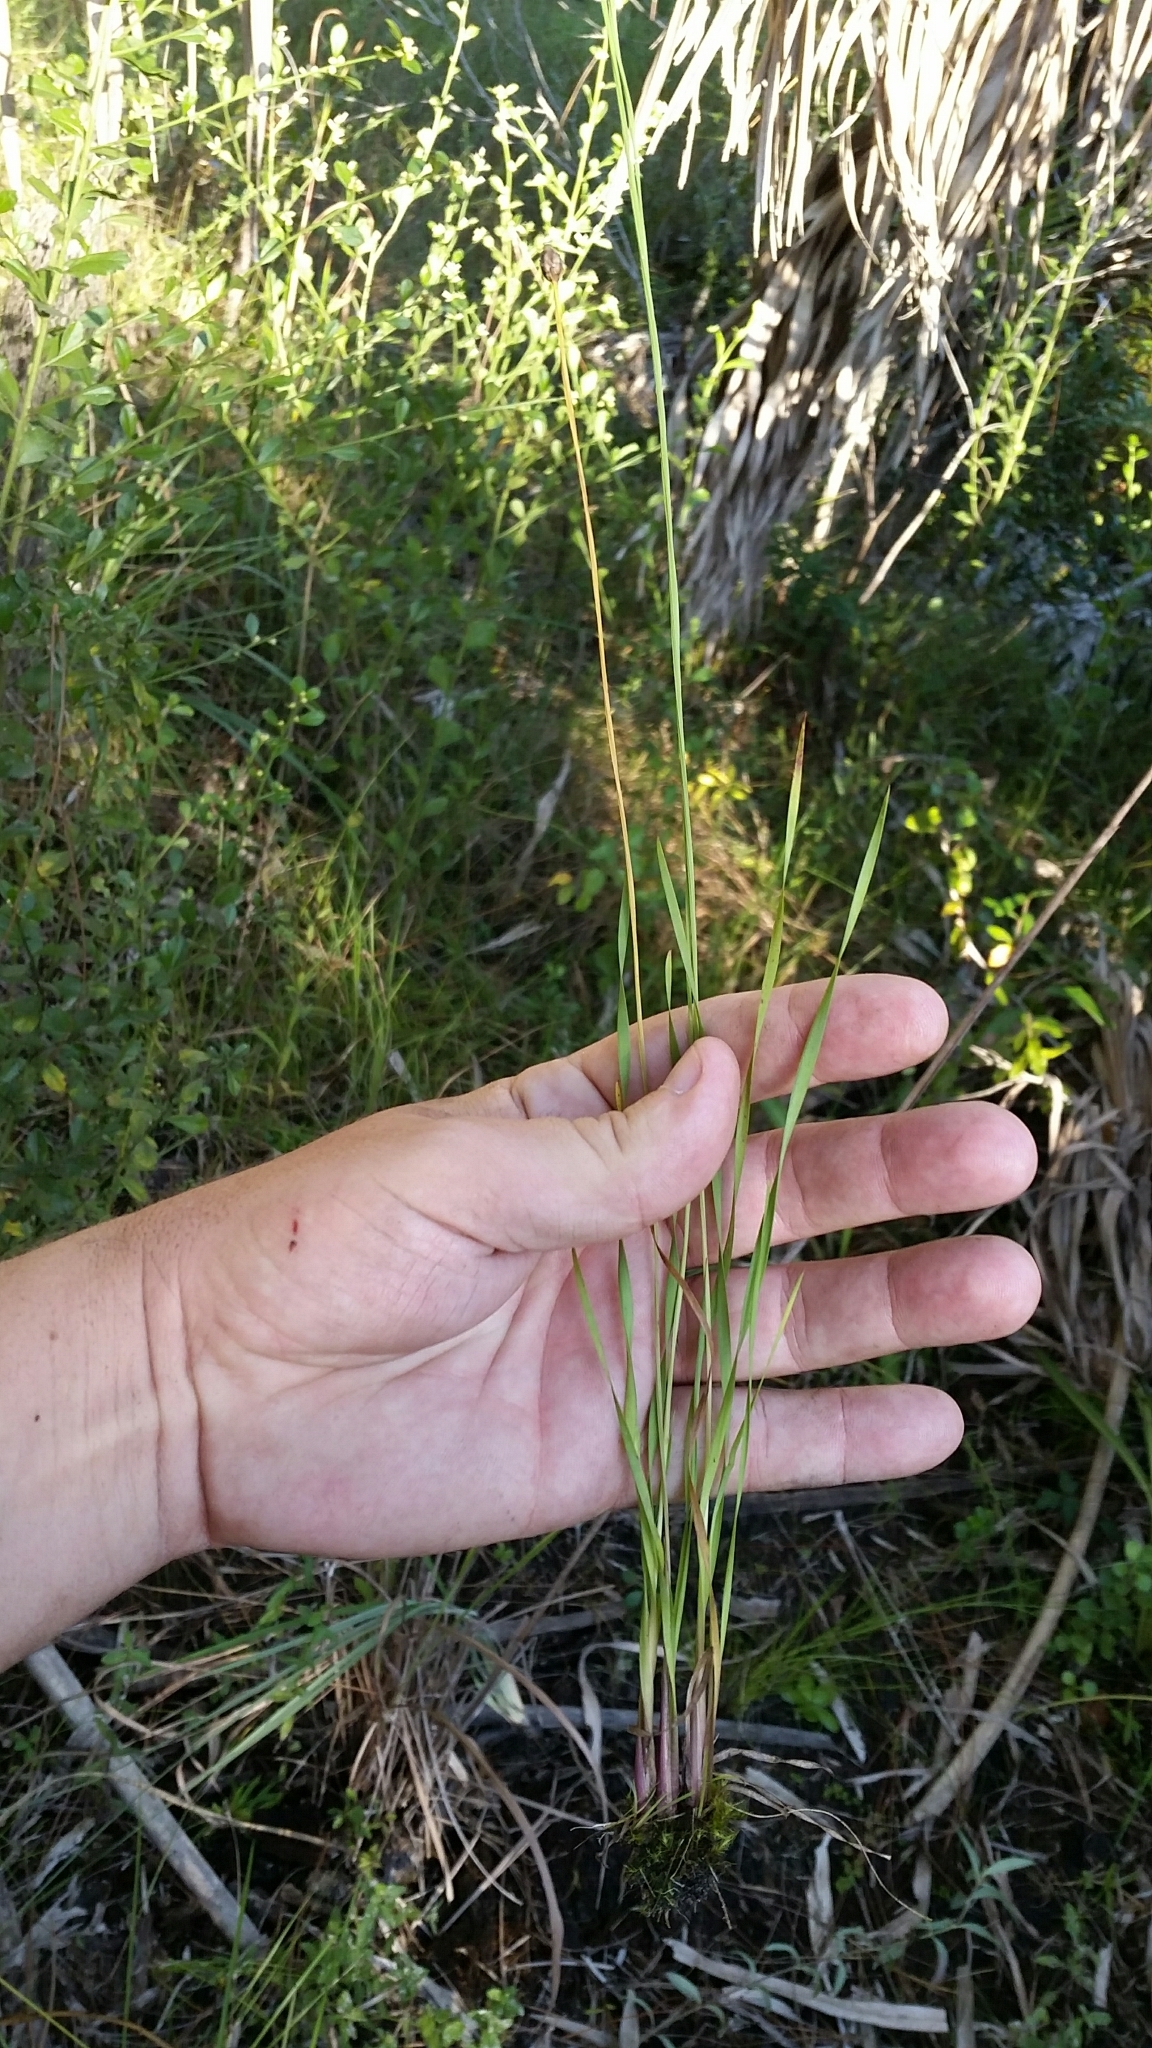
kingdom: Plantae
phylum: Tracheophyta
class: Liliopsida
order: Poales
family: Xyridaceae
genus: Xyris
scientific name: Xyris calcicola
